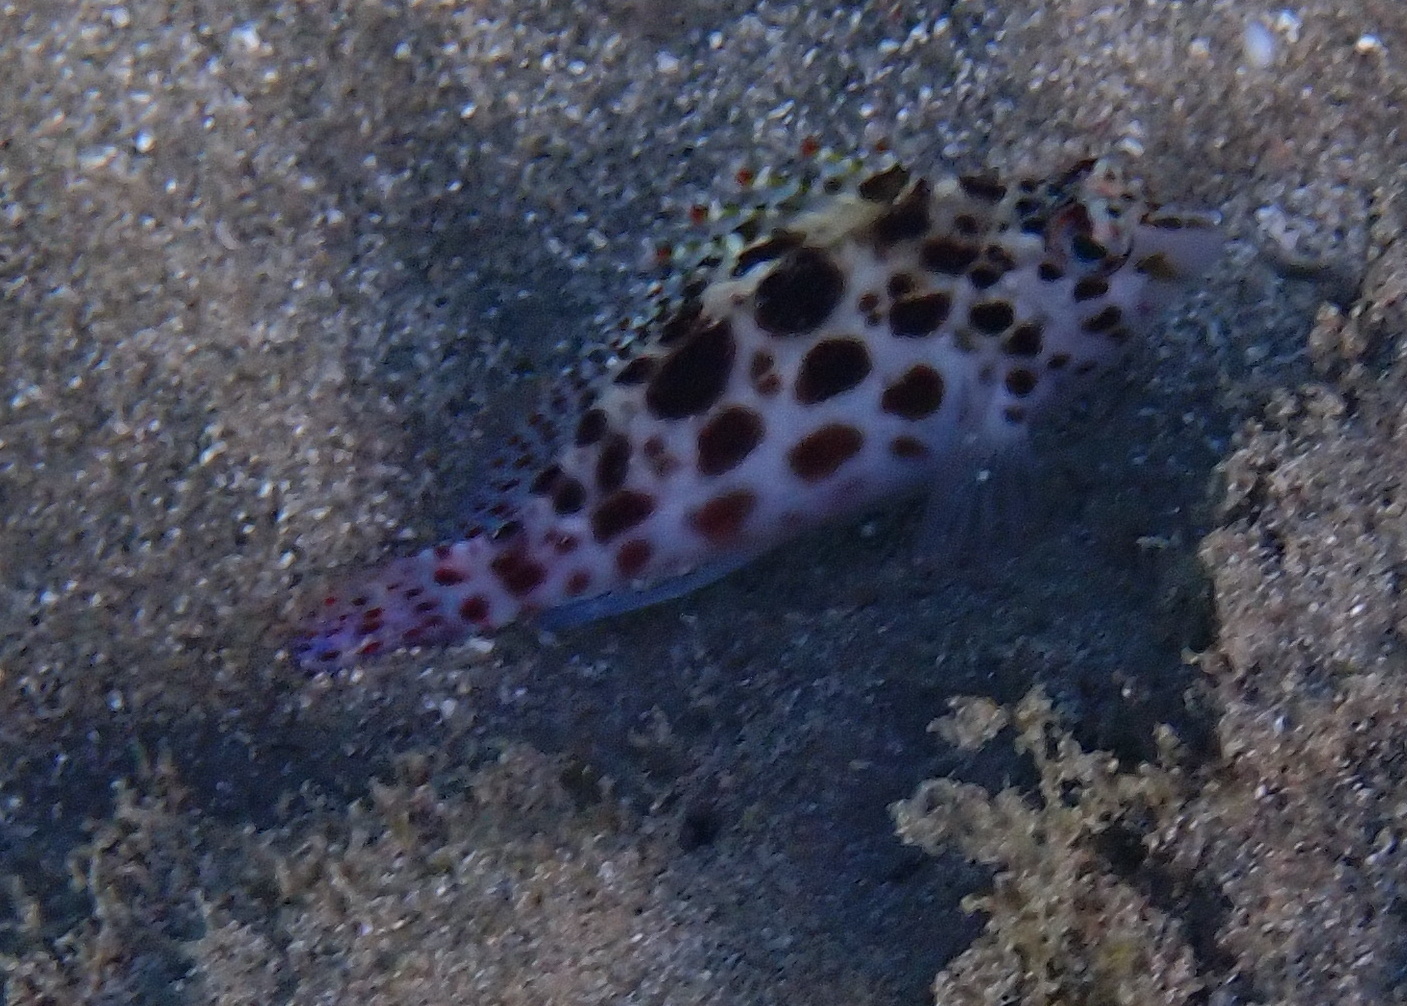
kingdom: Animalia
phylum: Chordata
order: Perciformes
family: Cirrhitidae
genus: Cirrhitichthys
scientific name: Cirrhitichthys oxycephalus
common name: Spotted hawkfish
